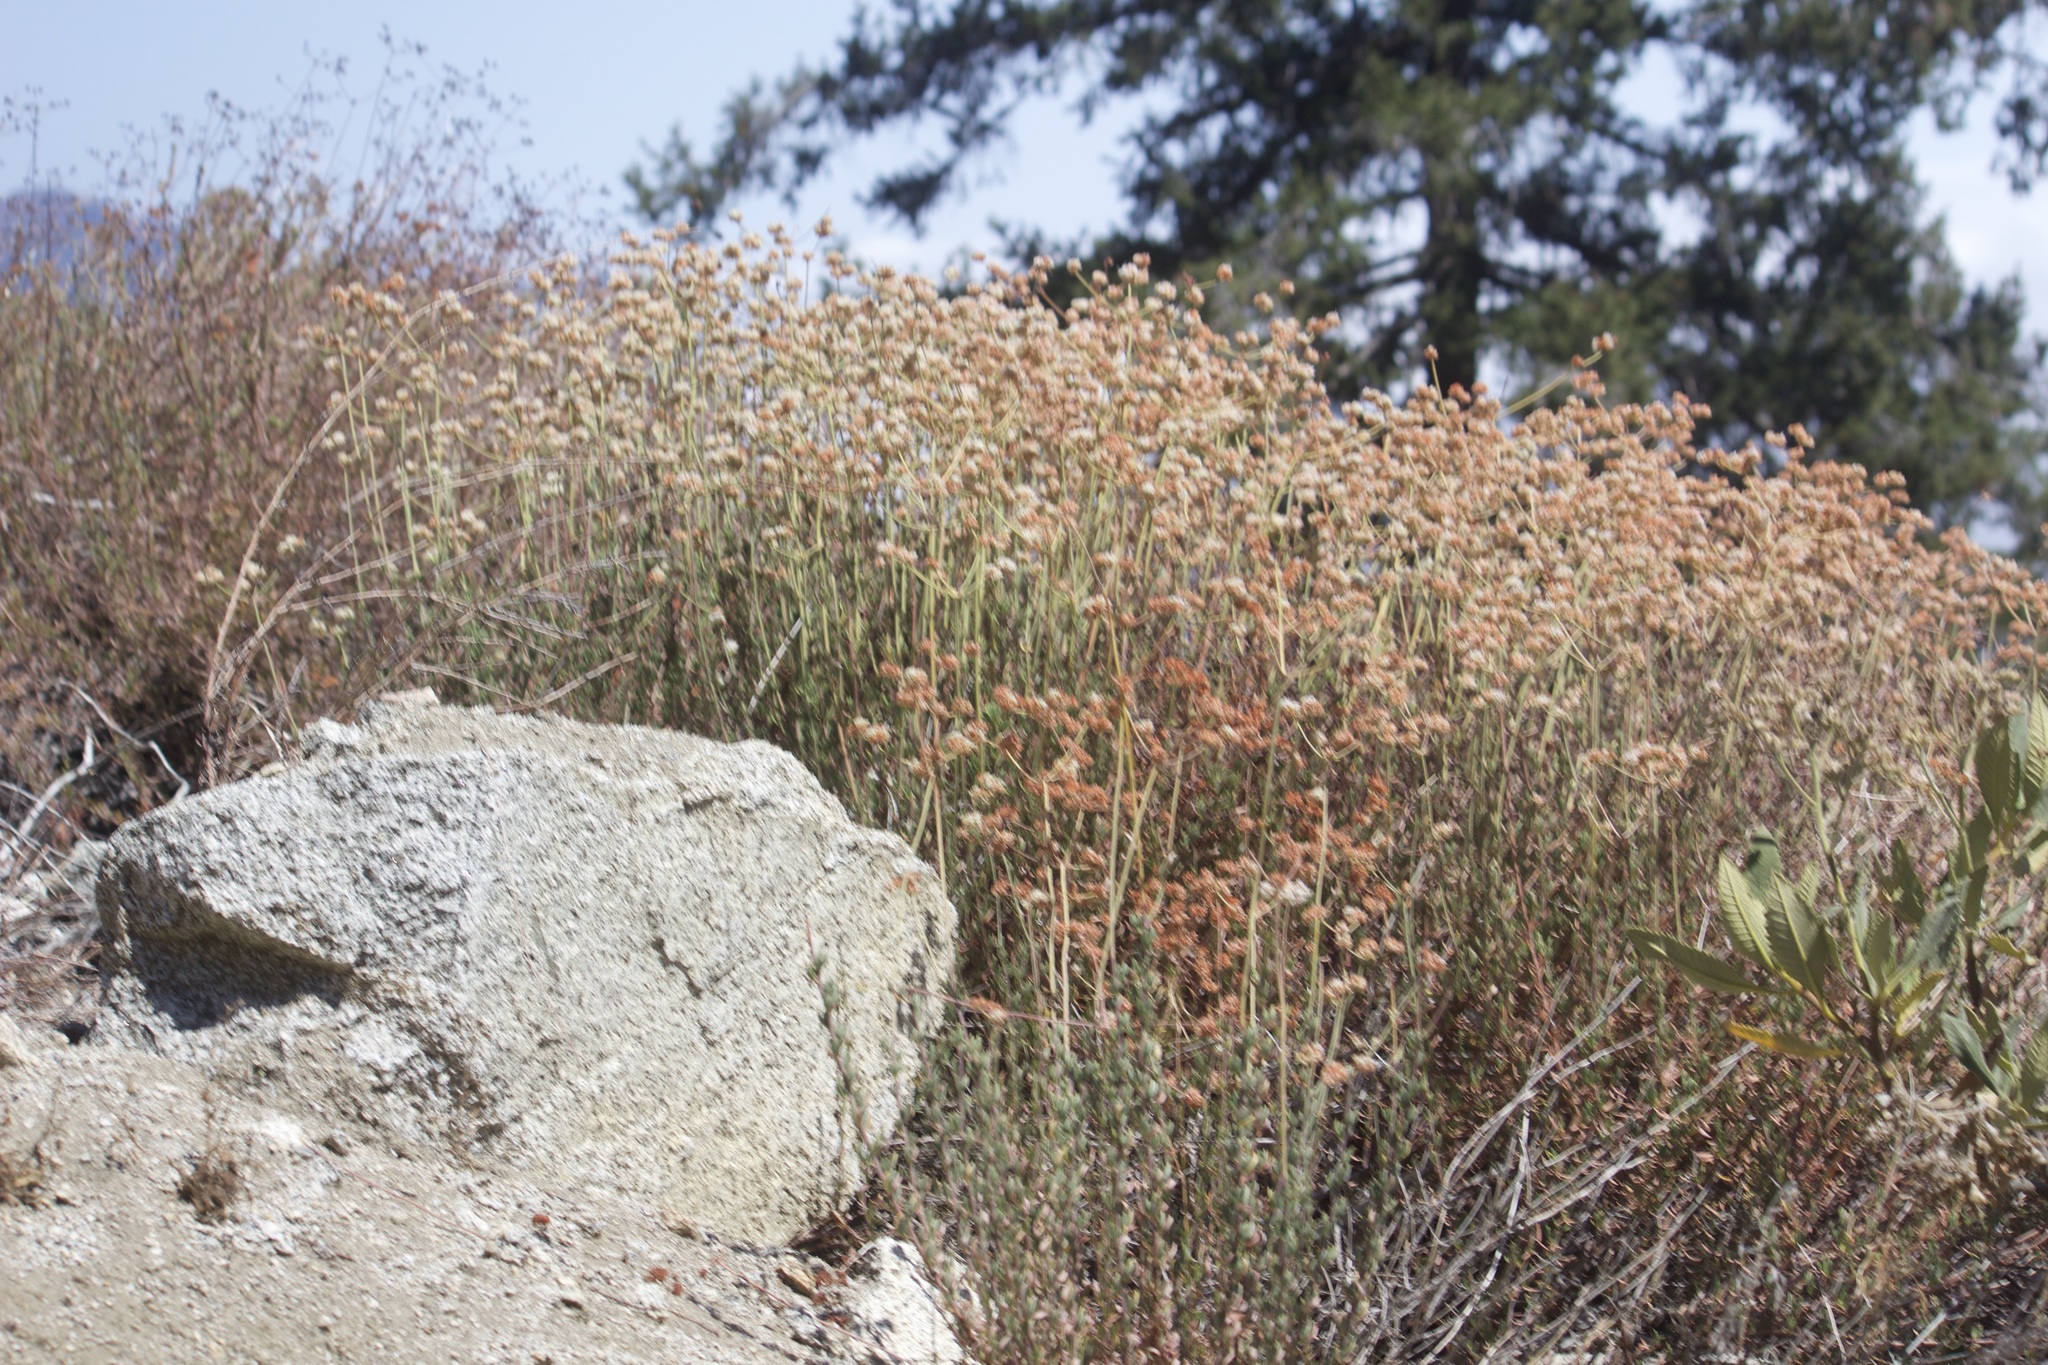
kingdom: Plantae
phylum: Tracheophyta
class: Magnoliopsida
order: Caryophyllales
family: Polygonaceae
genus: Eriogonum
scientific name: Eriogonum fasciculatum
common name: California wild buckwheat
